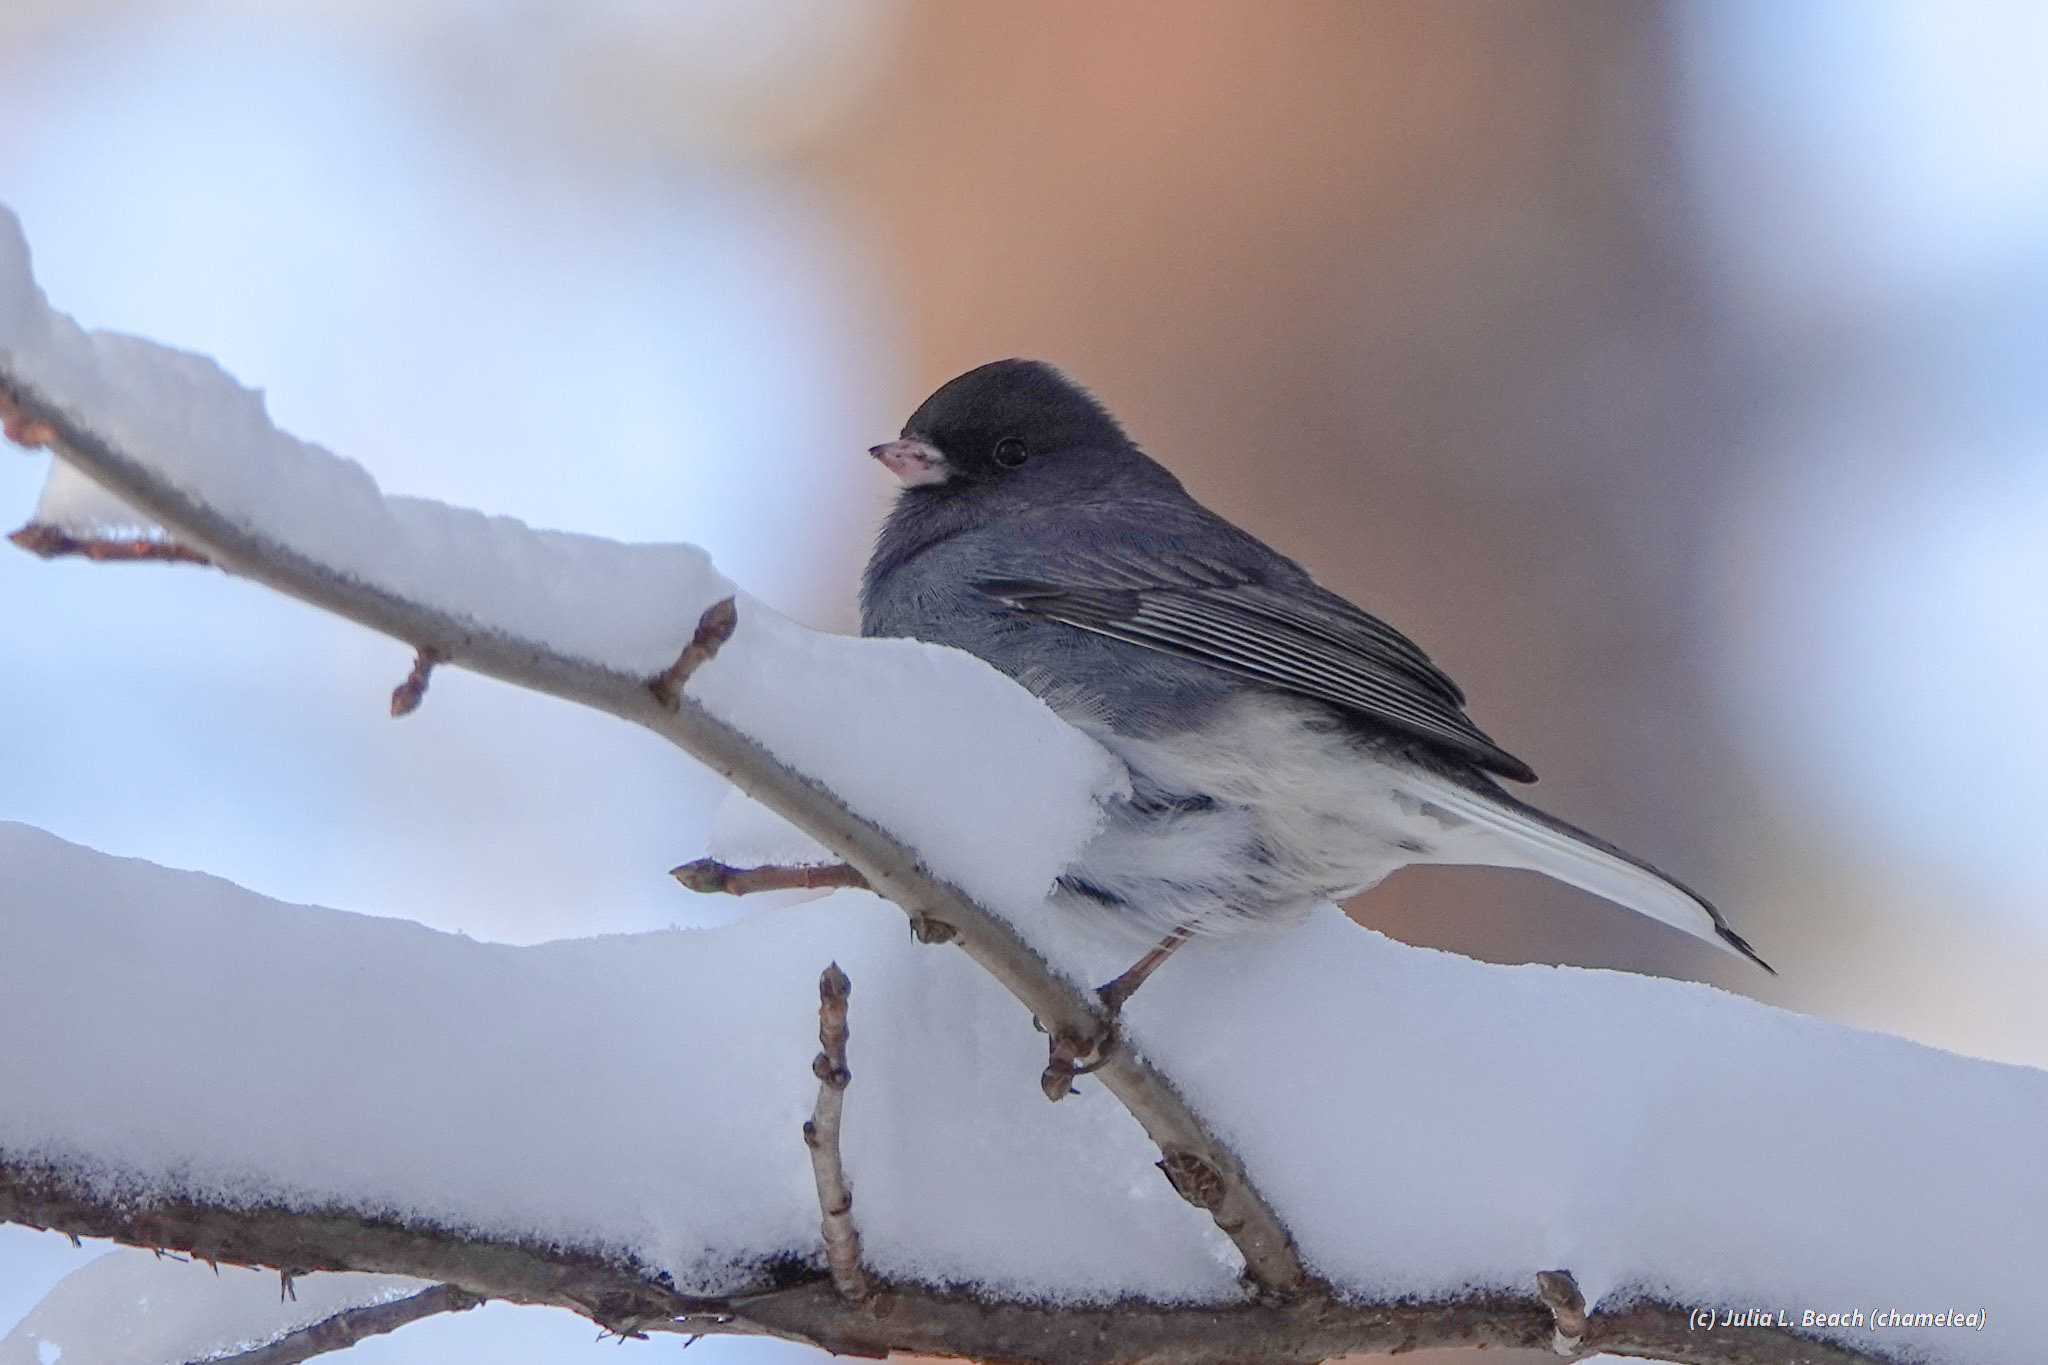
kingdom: Animalia
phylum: Chordata
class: Aves
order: Passeriformes
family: Passerellidae
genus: Junco
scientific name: Junco hyemalis
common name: Dark-eyed junco
